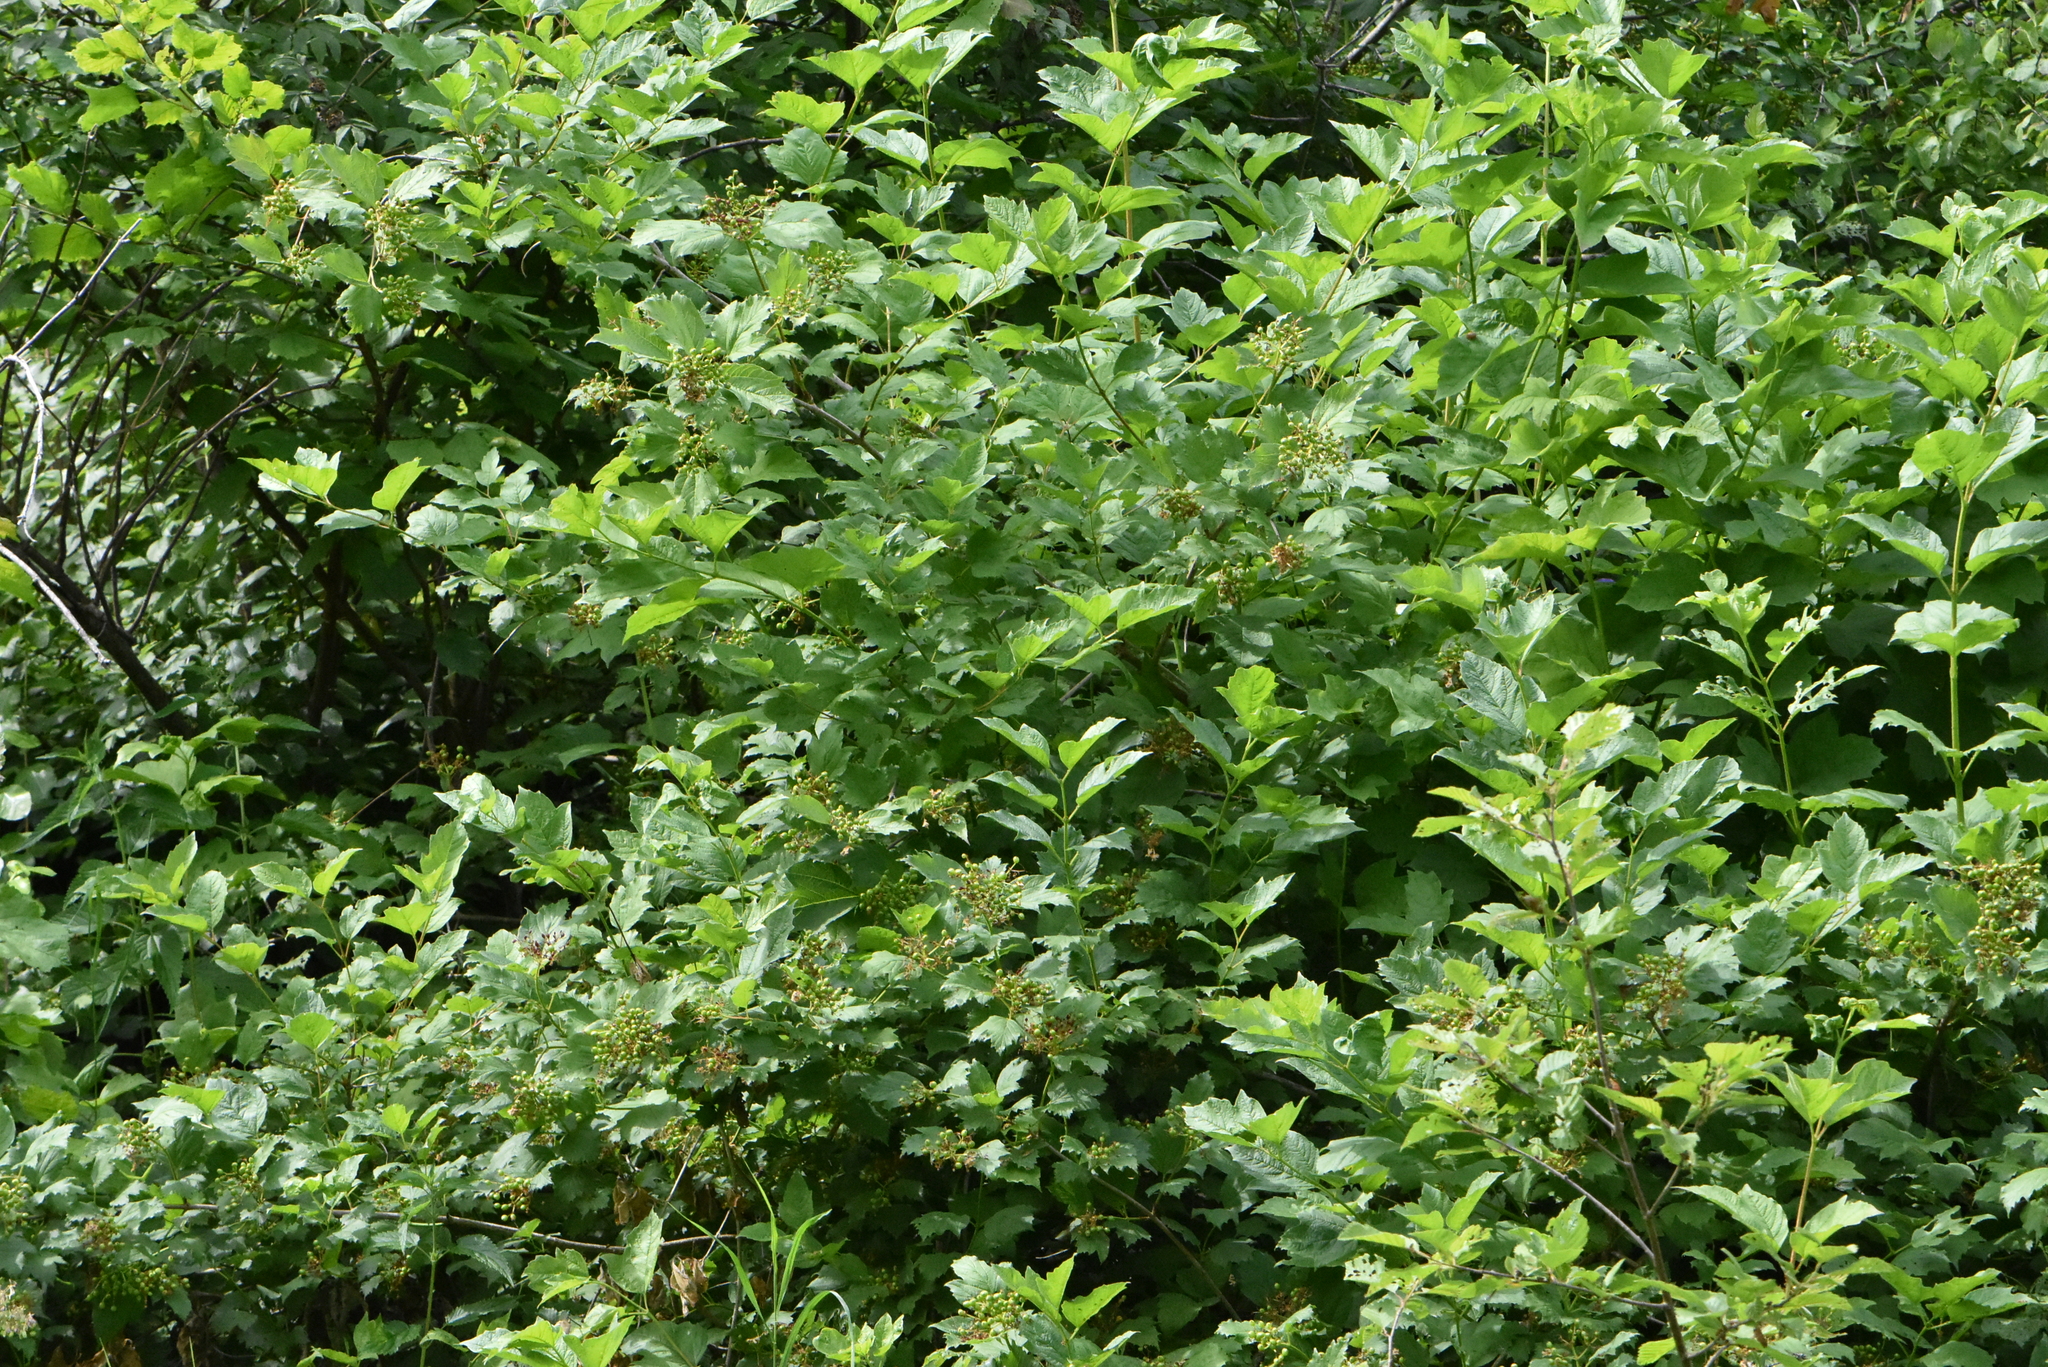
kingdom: Plantae
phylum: Tracheophyta
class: Magnoliopsida
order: Dipsacales
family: Viburnaceae
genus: Viburnum
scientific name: Viburnum opulus
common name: Guelder-rose
